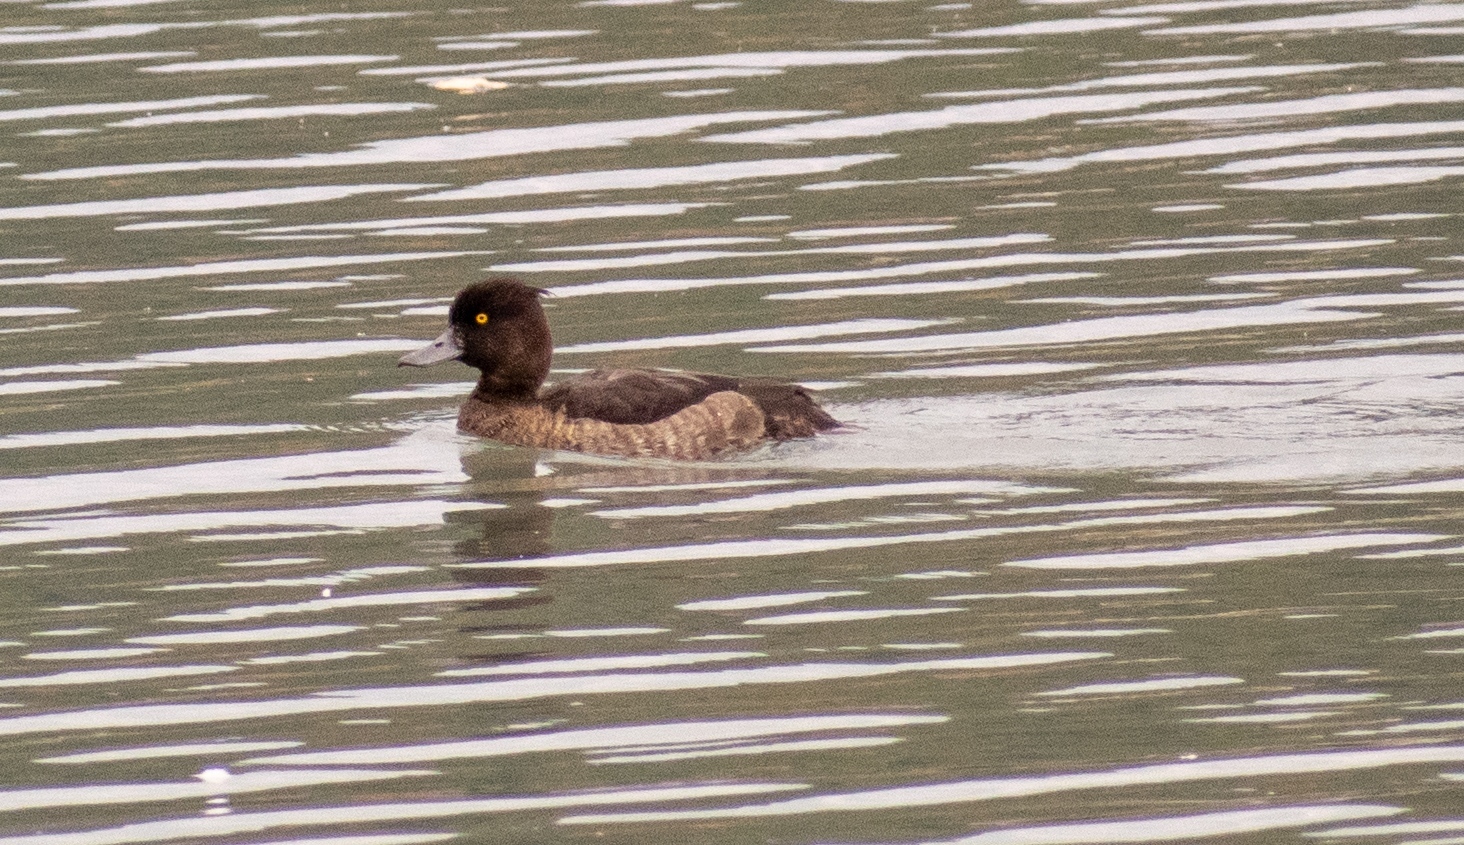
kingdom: Animalia
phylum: Chordata
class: Aves
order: Anseriformes
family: Anatidae
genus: Aythya
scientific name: Aythya fuligula
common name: Tufted duck
